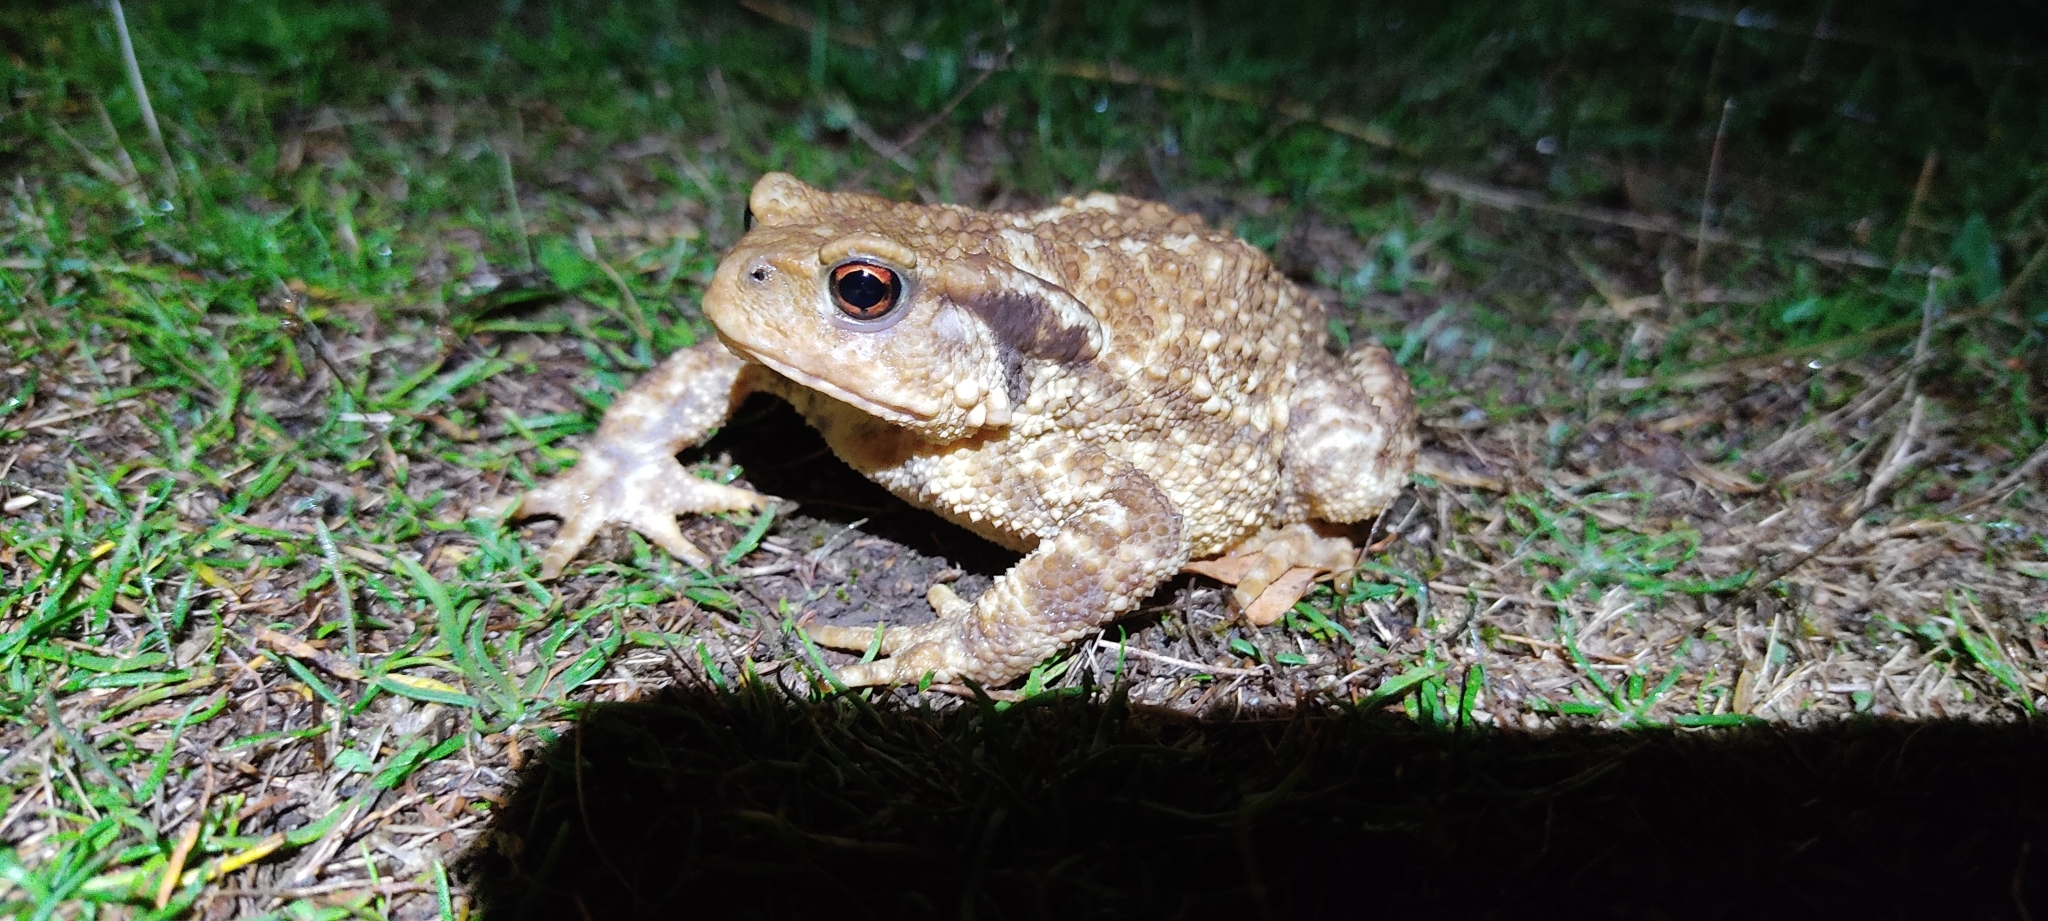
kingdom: Animalia
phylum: Chordata
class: Amphibia
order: Anura
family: Bufonidae
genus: Bufo
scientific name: Bufo spinosus
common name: Western common toad
